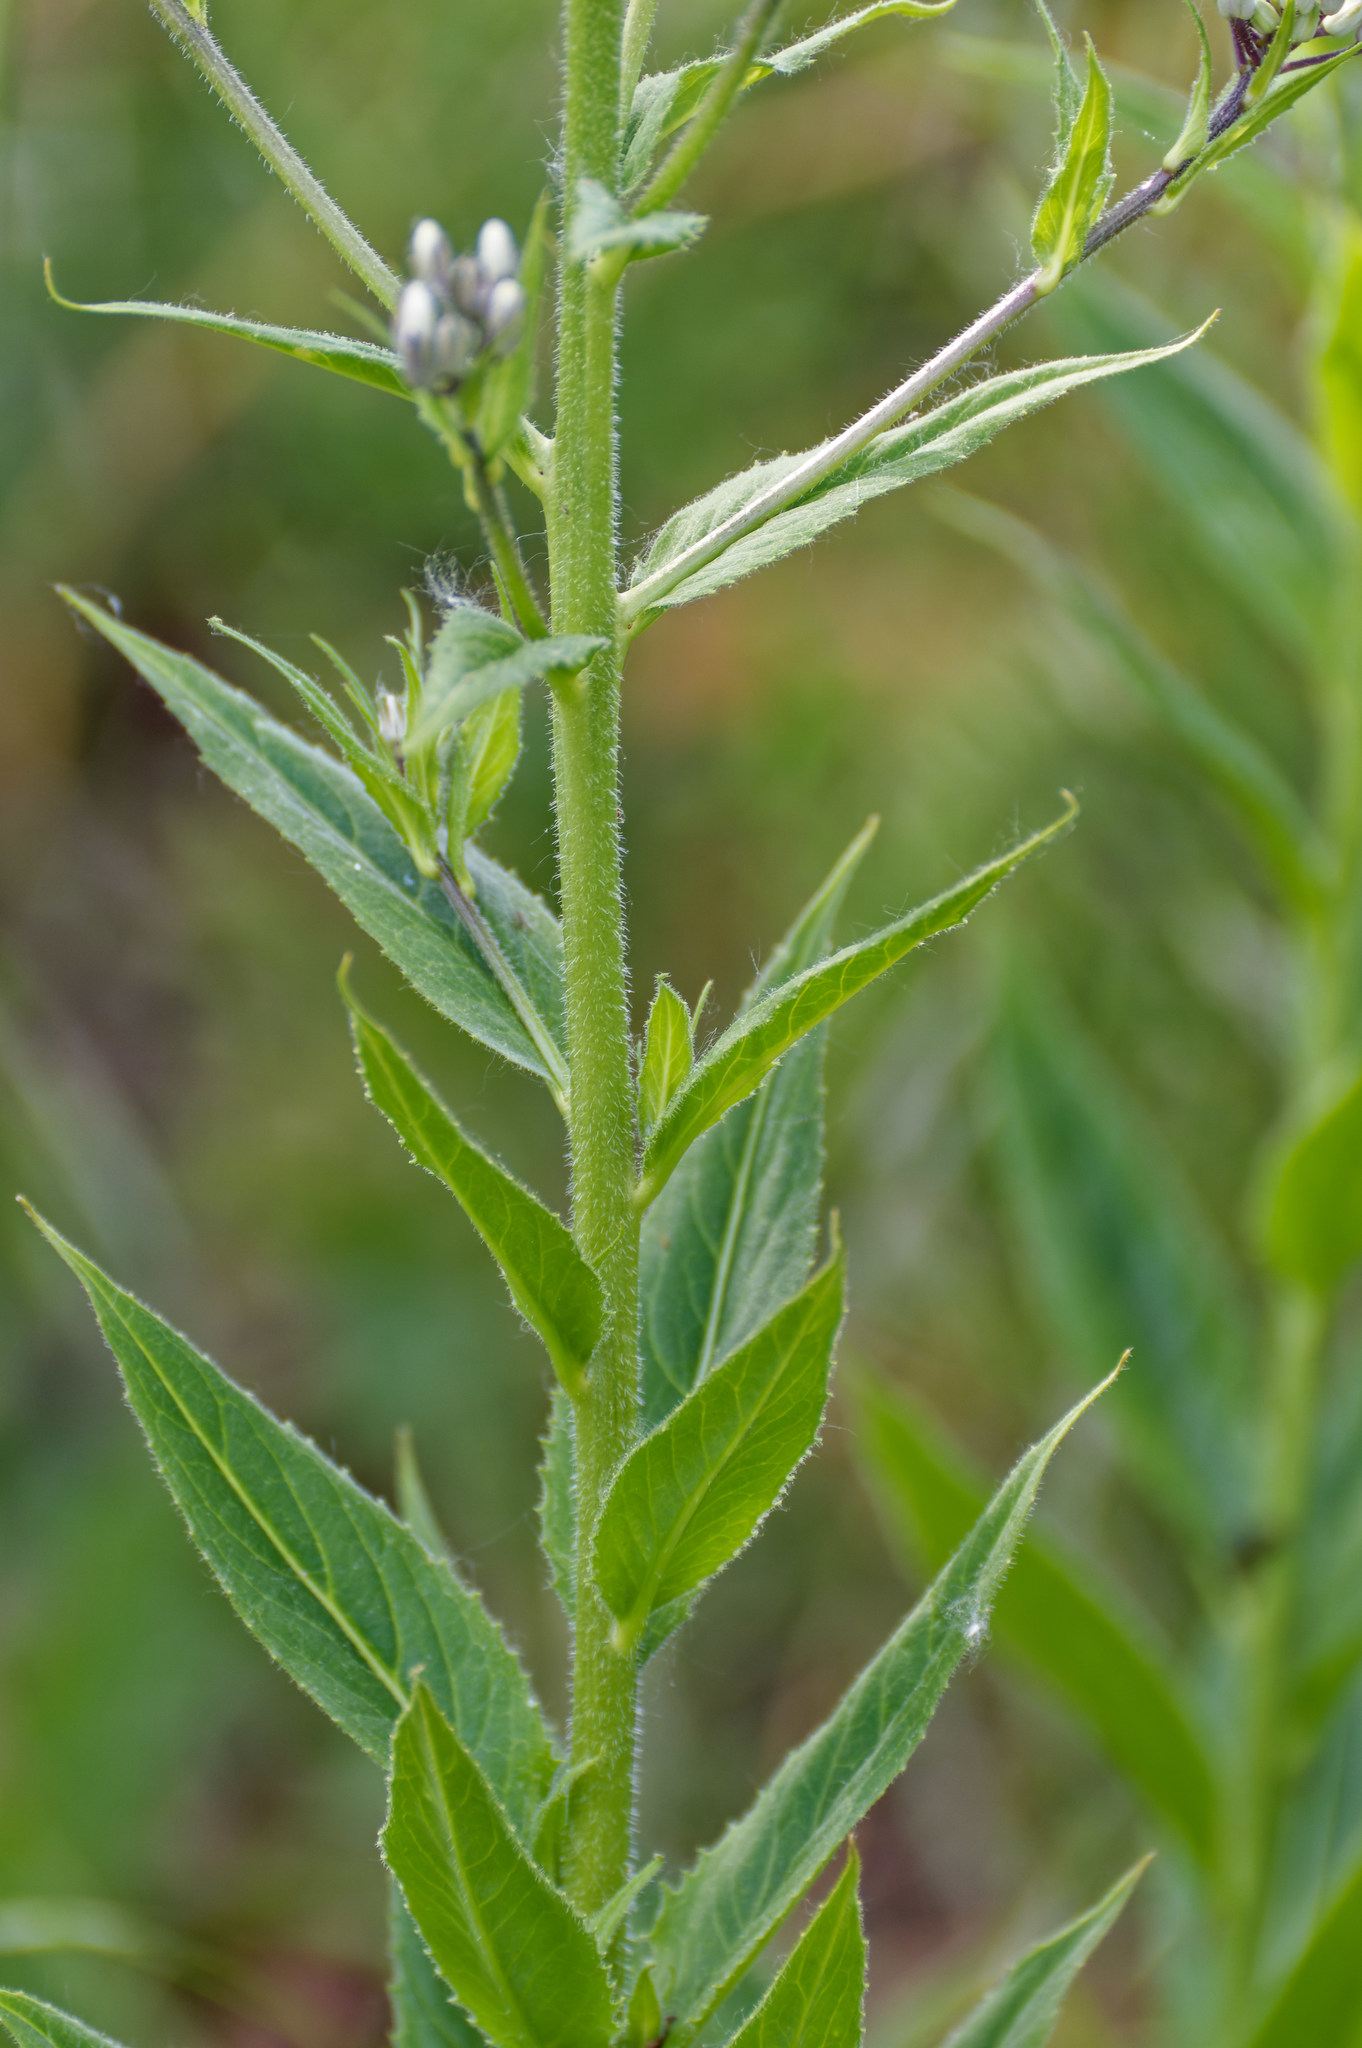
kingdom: Plantae
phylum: Tracheophyta
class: Magnoliopsida
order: Brassicales
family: Brassicaceae
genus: Hesperis
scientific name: Hesperis matronalis
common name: Dame's-violet
